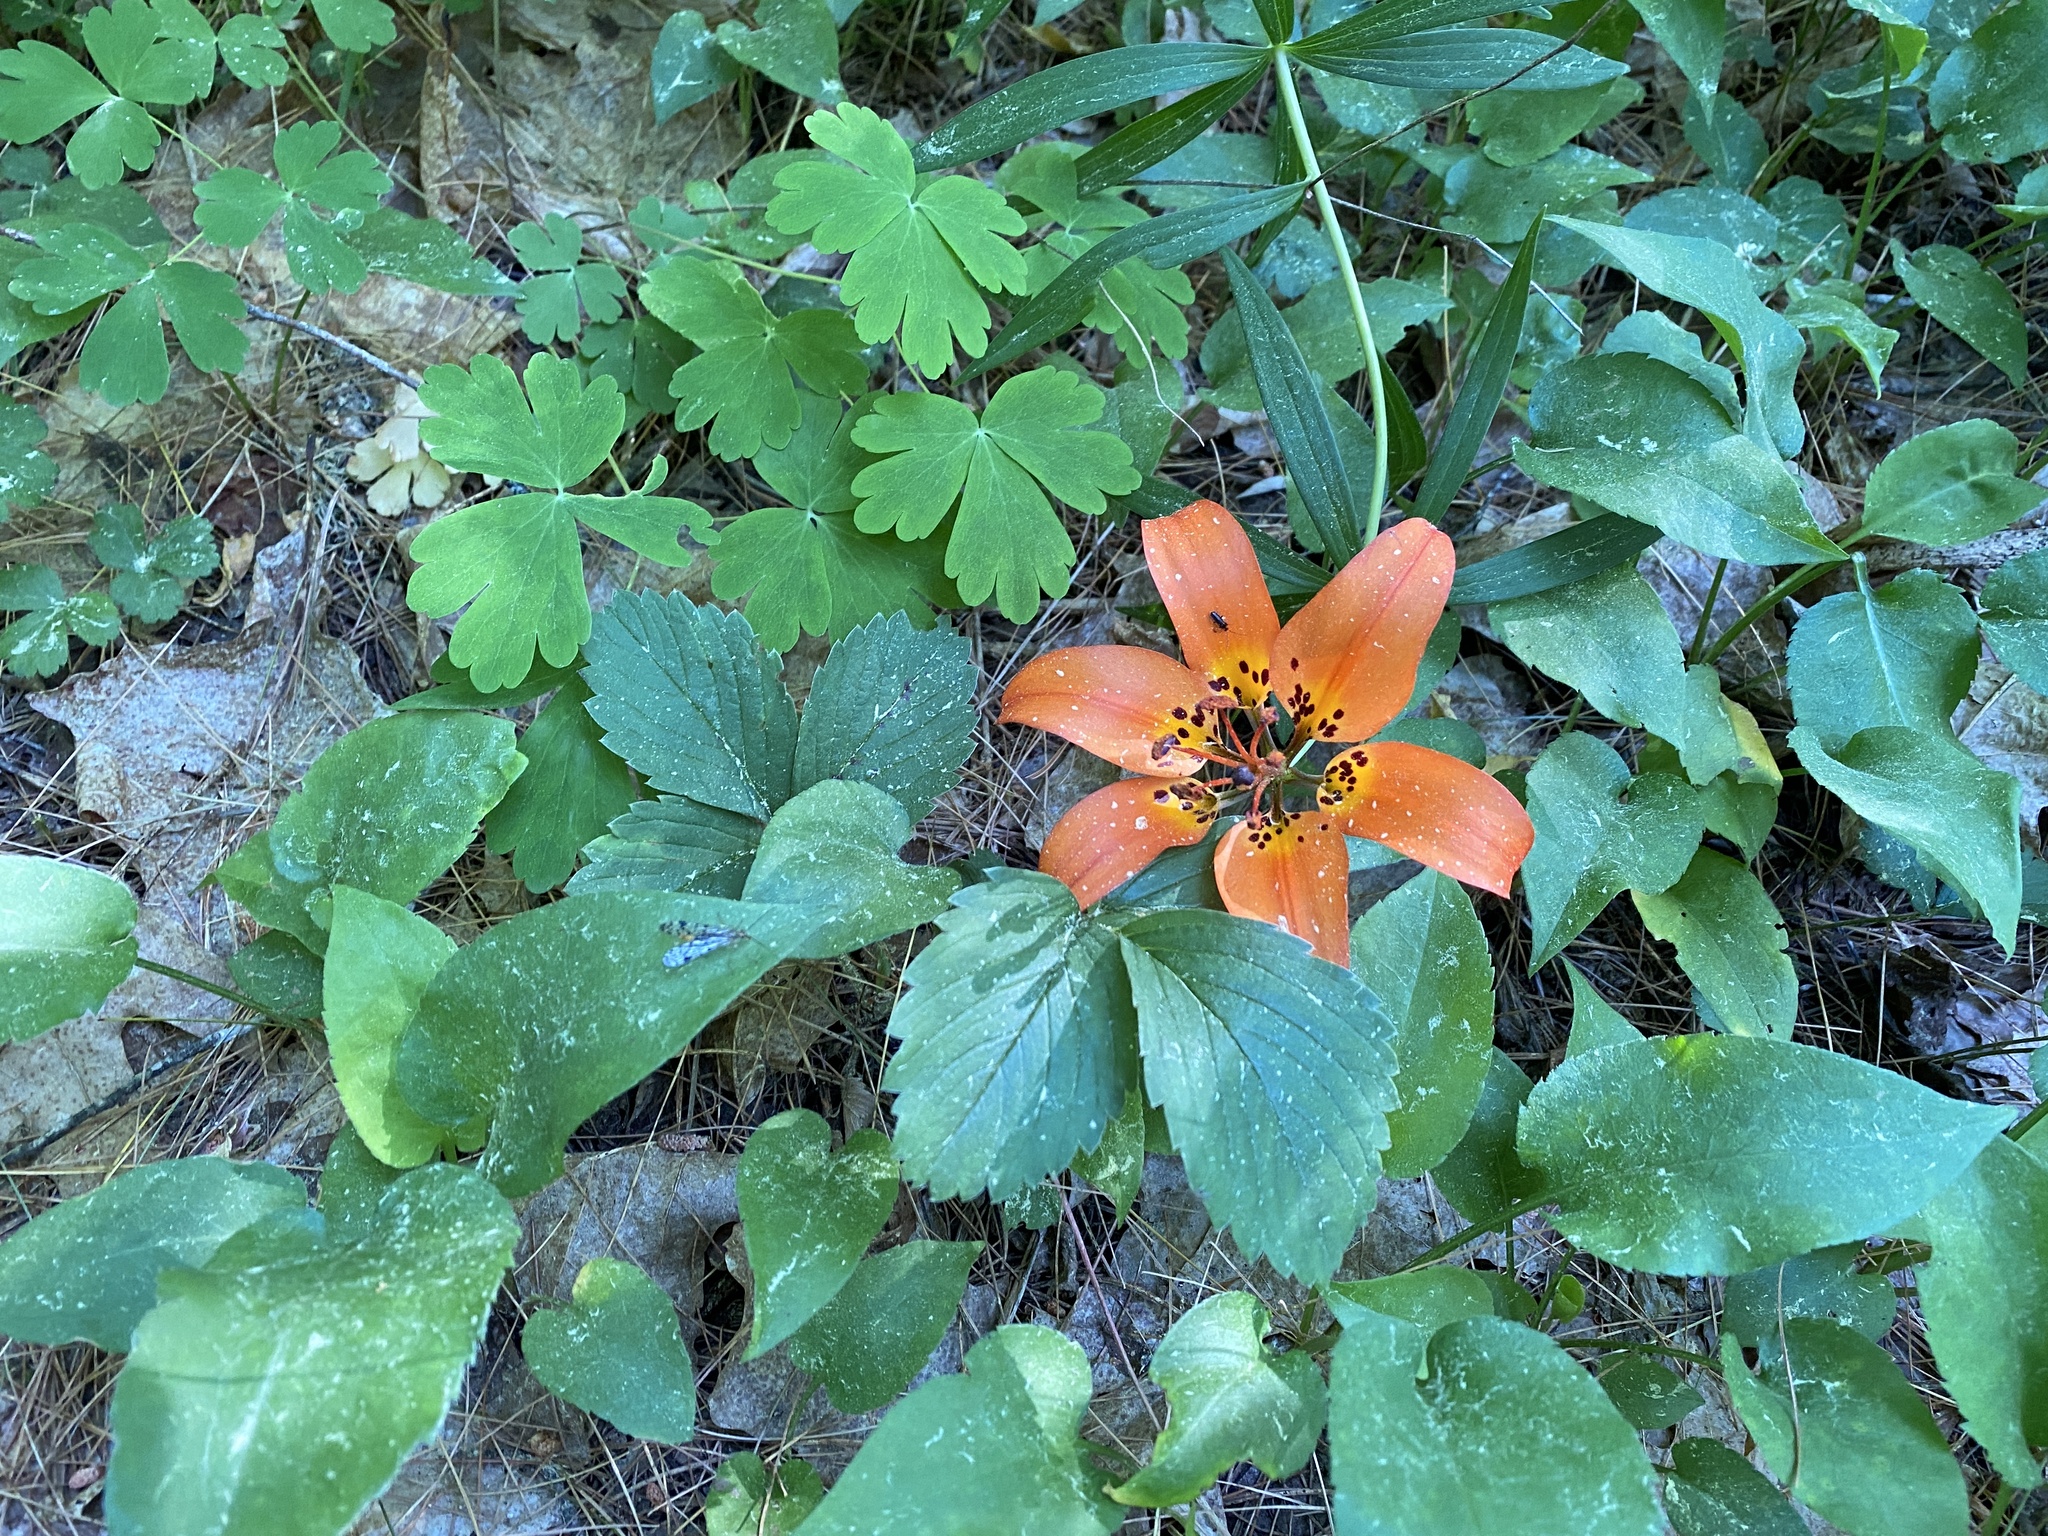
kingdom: Plantae
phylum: Tracheophyta
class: Liliopsida
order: Liliales
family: Liliaceae
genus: Lilium
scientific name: Lilium philadelphicum
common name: Red lily
